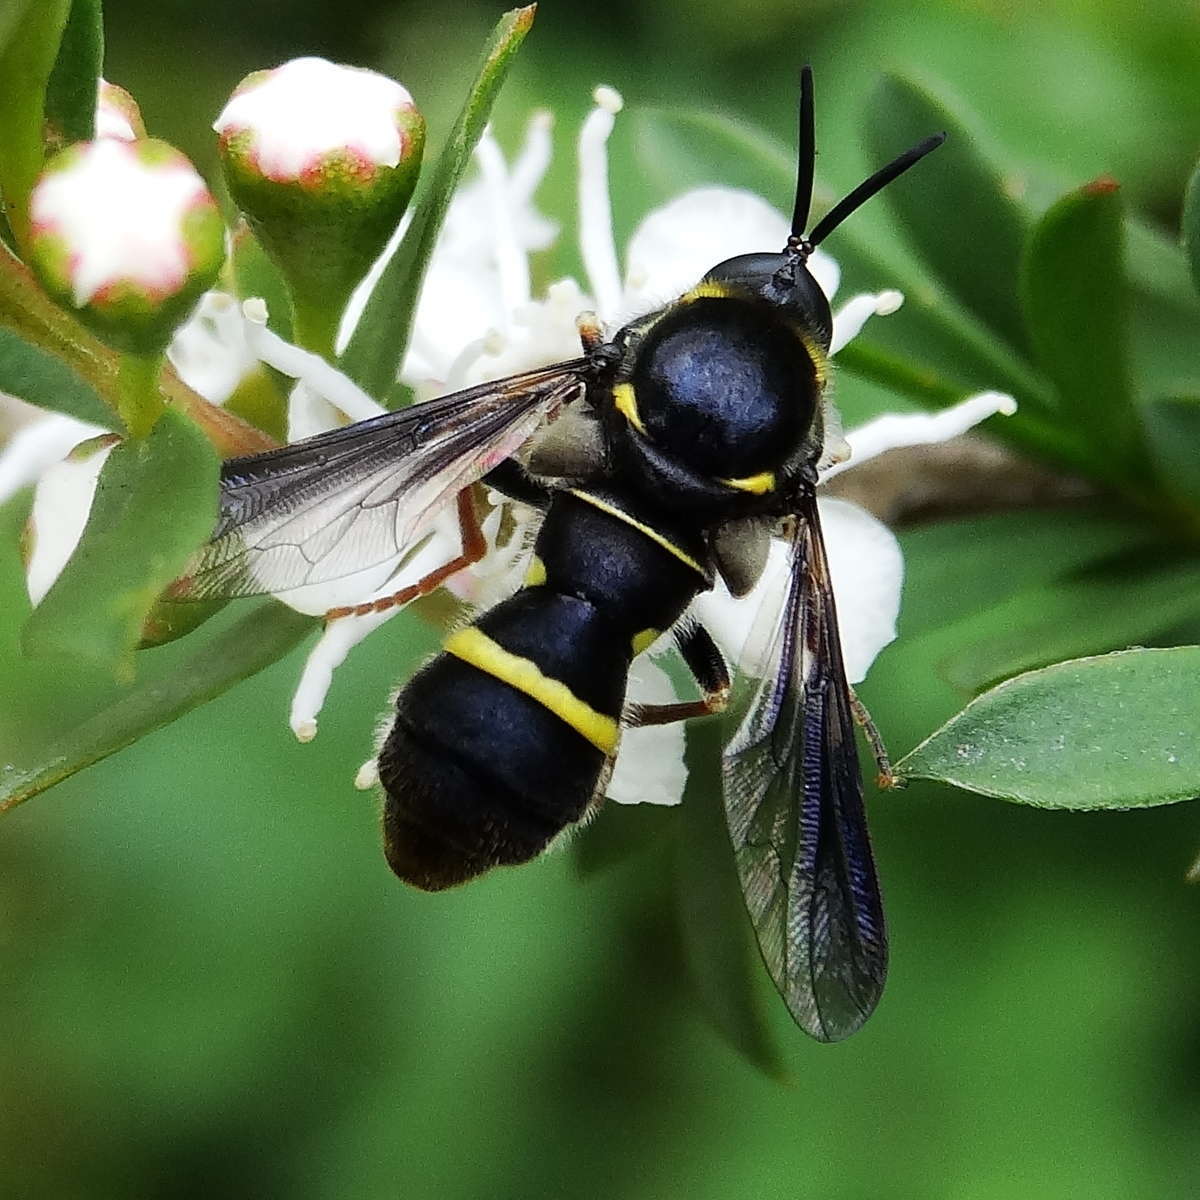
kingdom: Animalia
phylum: Arthropoda
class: Insecta
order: Diptera
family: Acroceridae
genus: Leucopsina
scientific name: Leucopsina odyneroides
